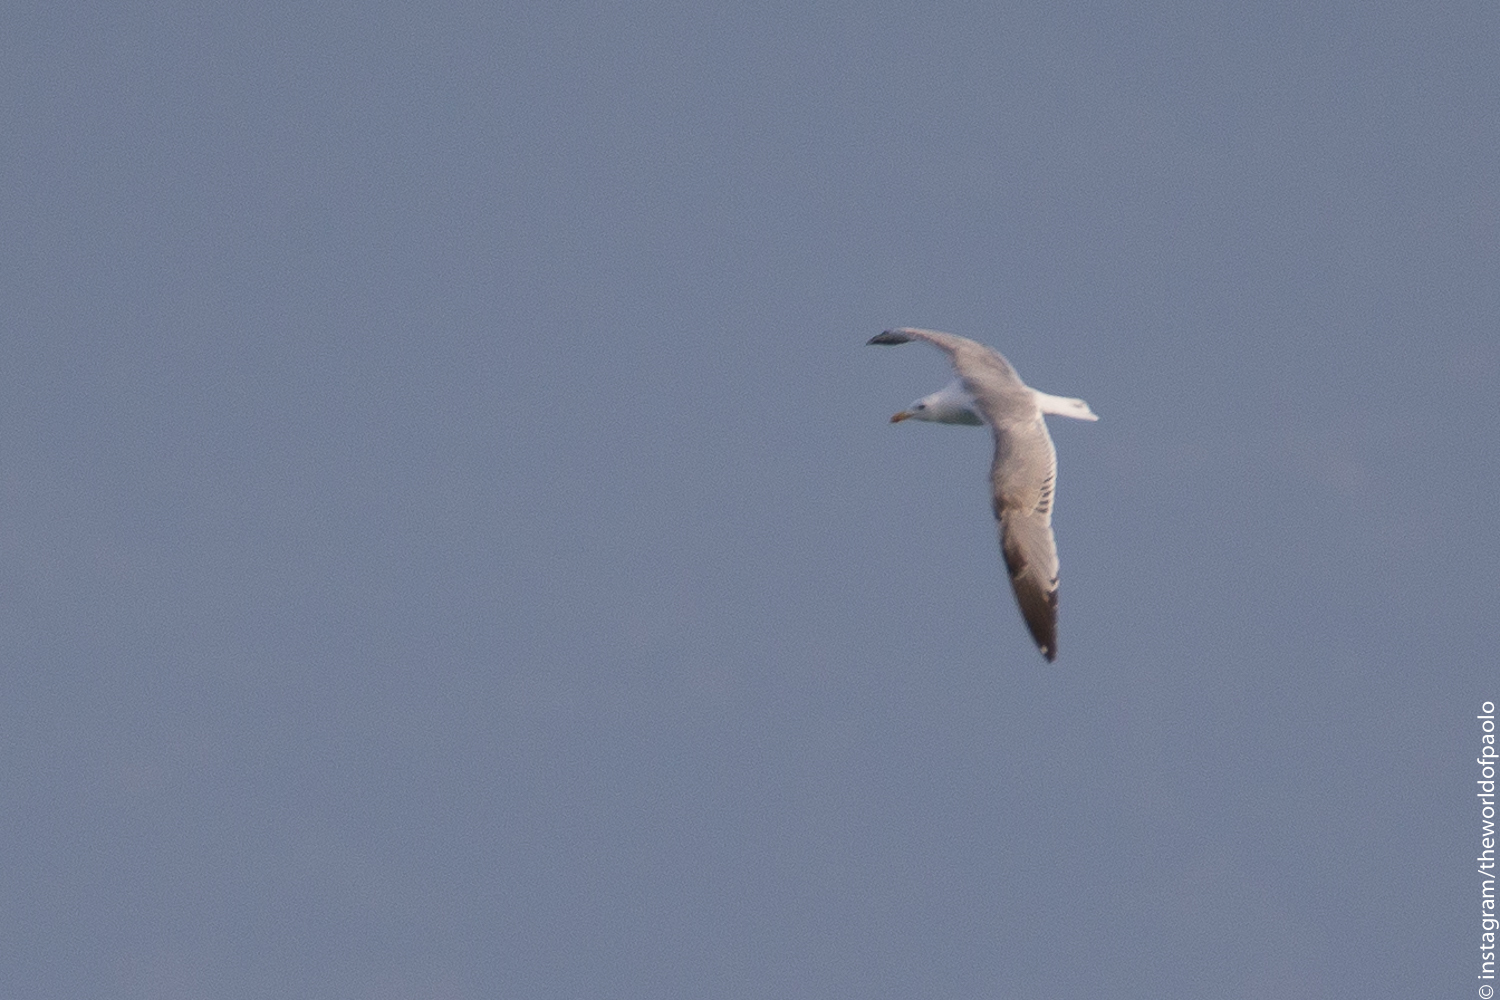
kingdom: Animalia
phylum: Chordata
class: Aves
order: Charadriiformes
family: Laridae
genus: Larus
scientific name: Larus michahellis
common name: Yellow-legged gull
